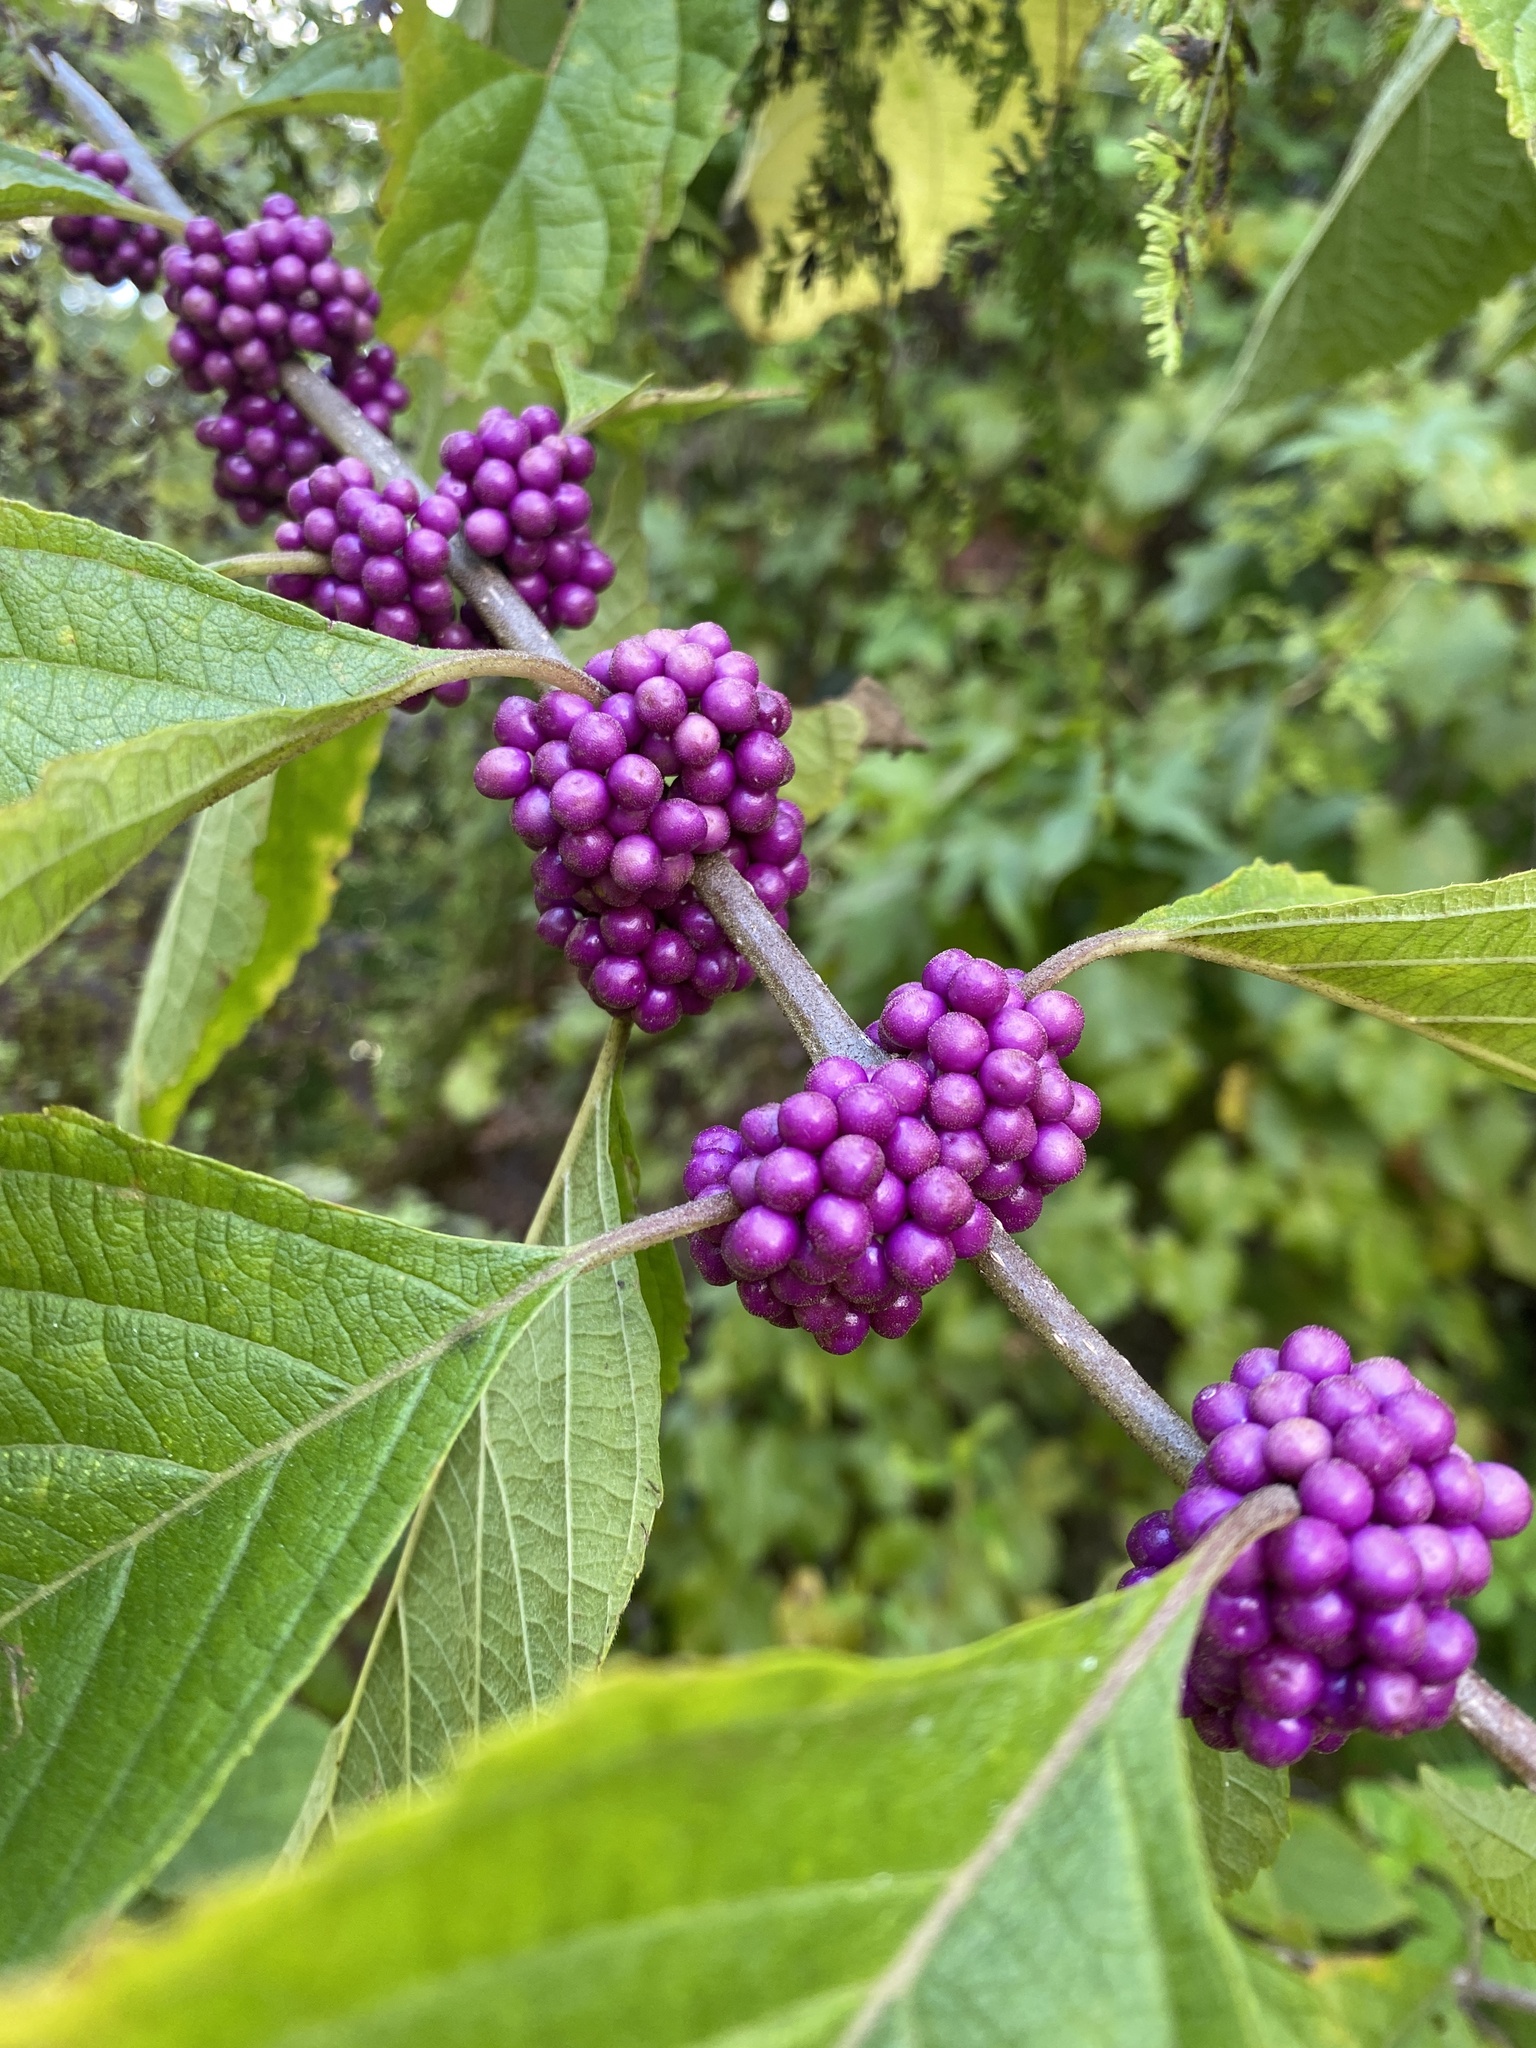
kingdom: Plantae
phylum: Tracheophyta
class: Magnoliopsida
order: Lamiales
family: Lamiaceae
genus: Callicarpa
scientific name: Callicarpa americana
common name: American beautyberry
